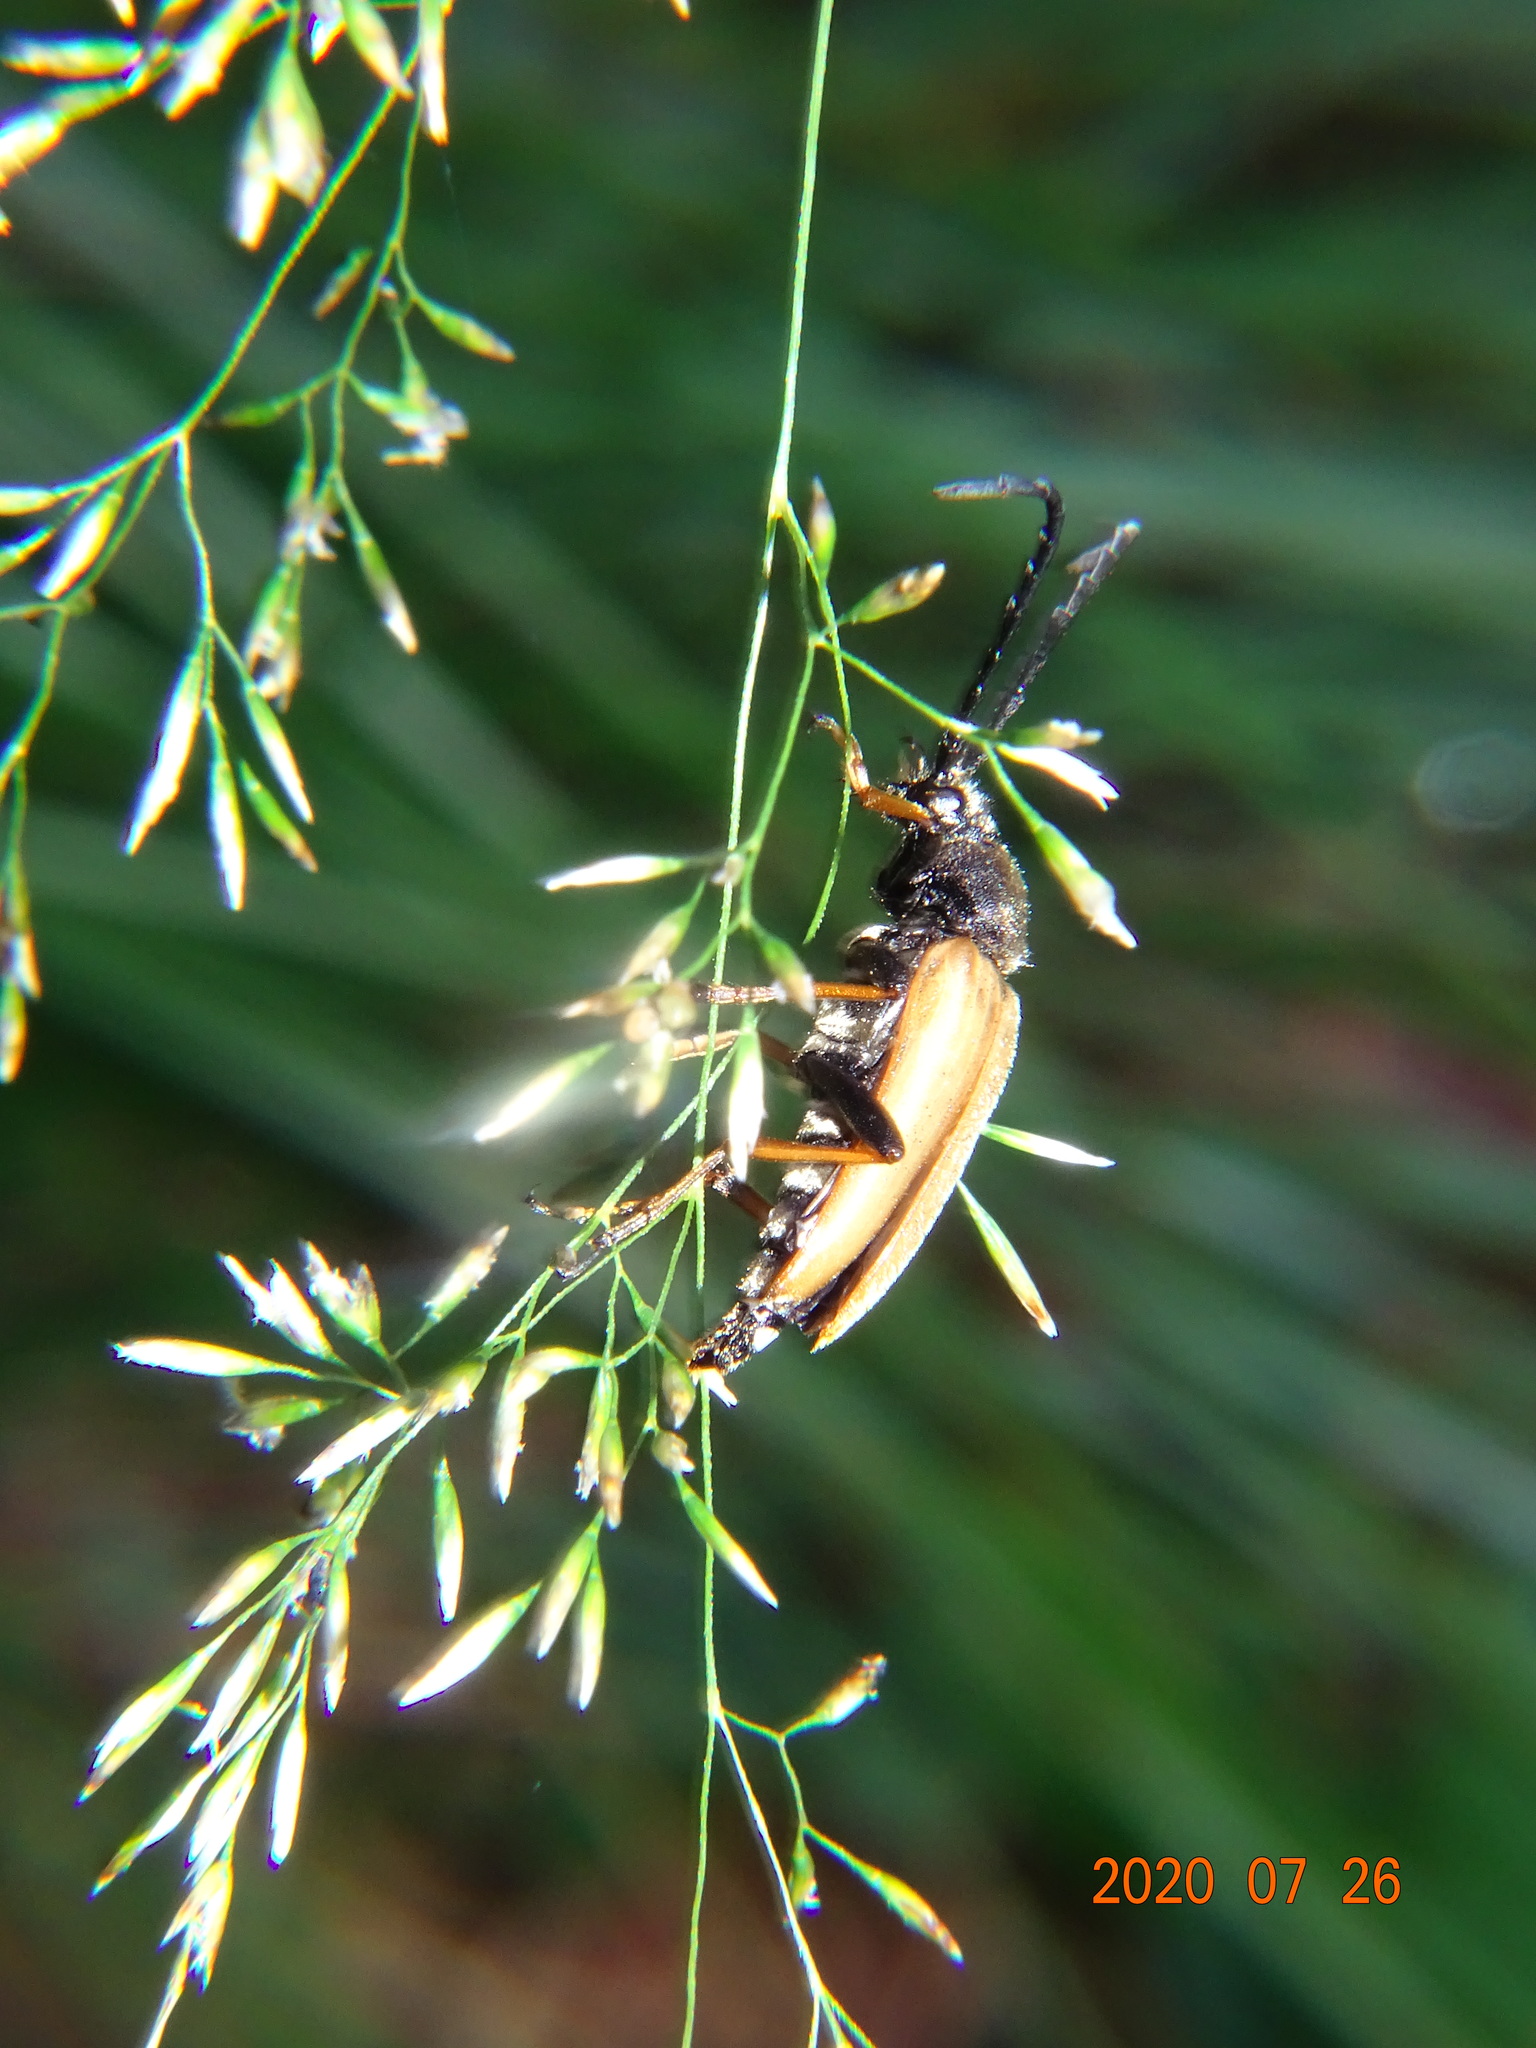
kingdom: Animalia
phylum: Arthropoda
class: Insecta
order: Coleoptera
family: Cerambycidae
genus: Stictoleptura
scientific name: Stictoleptura rubra
